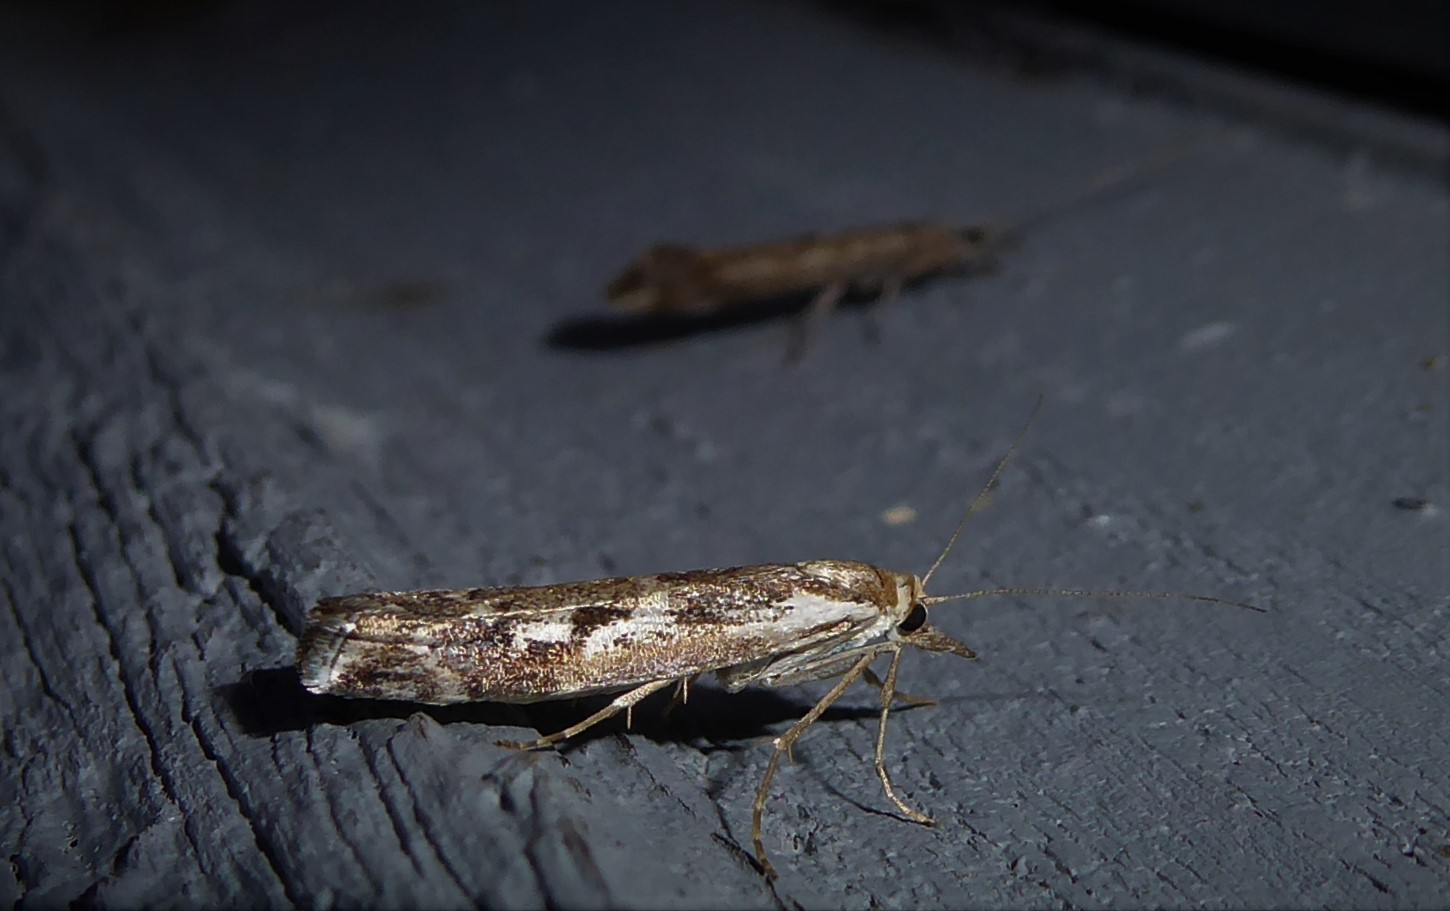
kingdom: Animalia
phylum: Arthropoda
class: Insecta
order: Lepidoptera
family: Crambidae
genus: Orocrambus
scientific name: Orocrambus vulgaris
